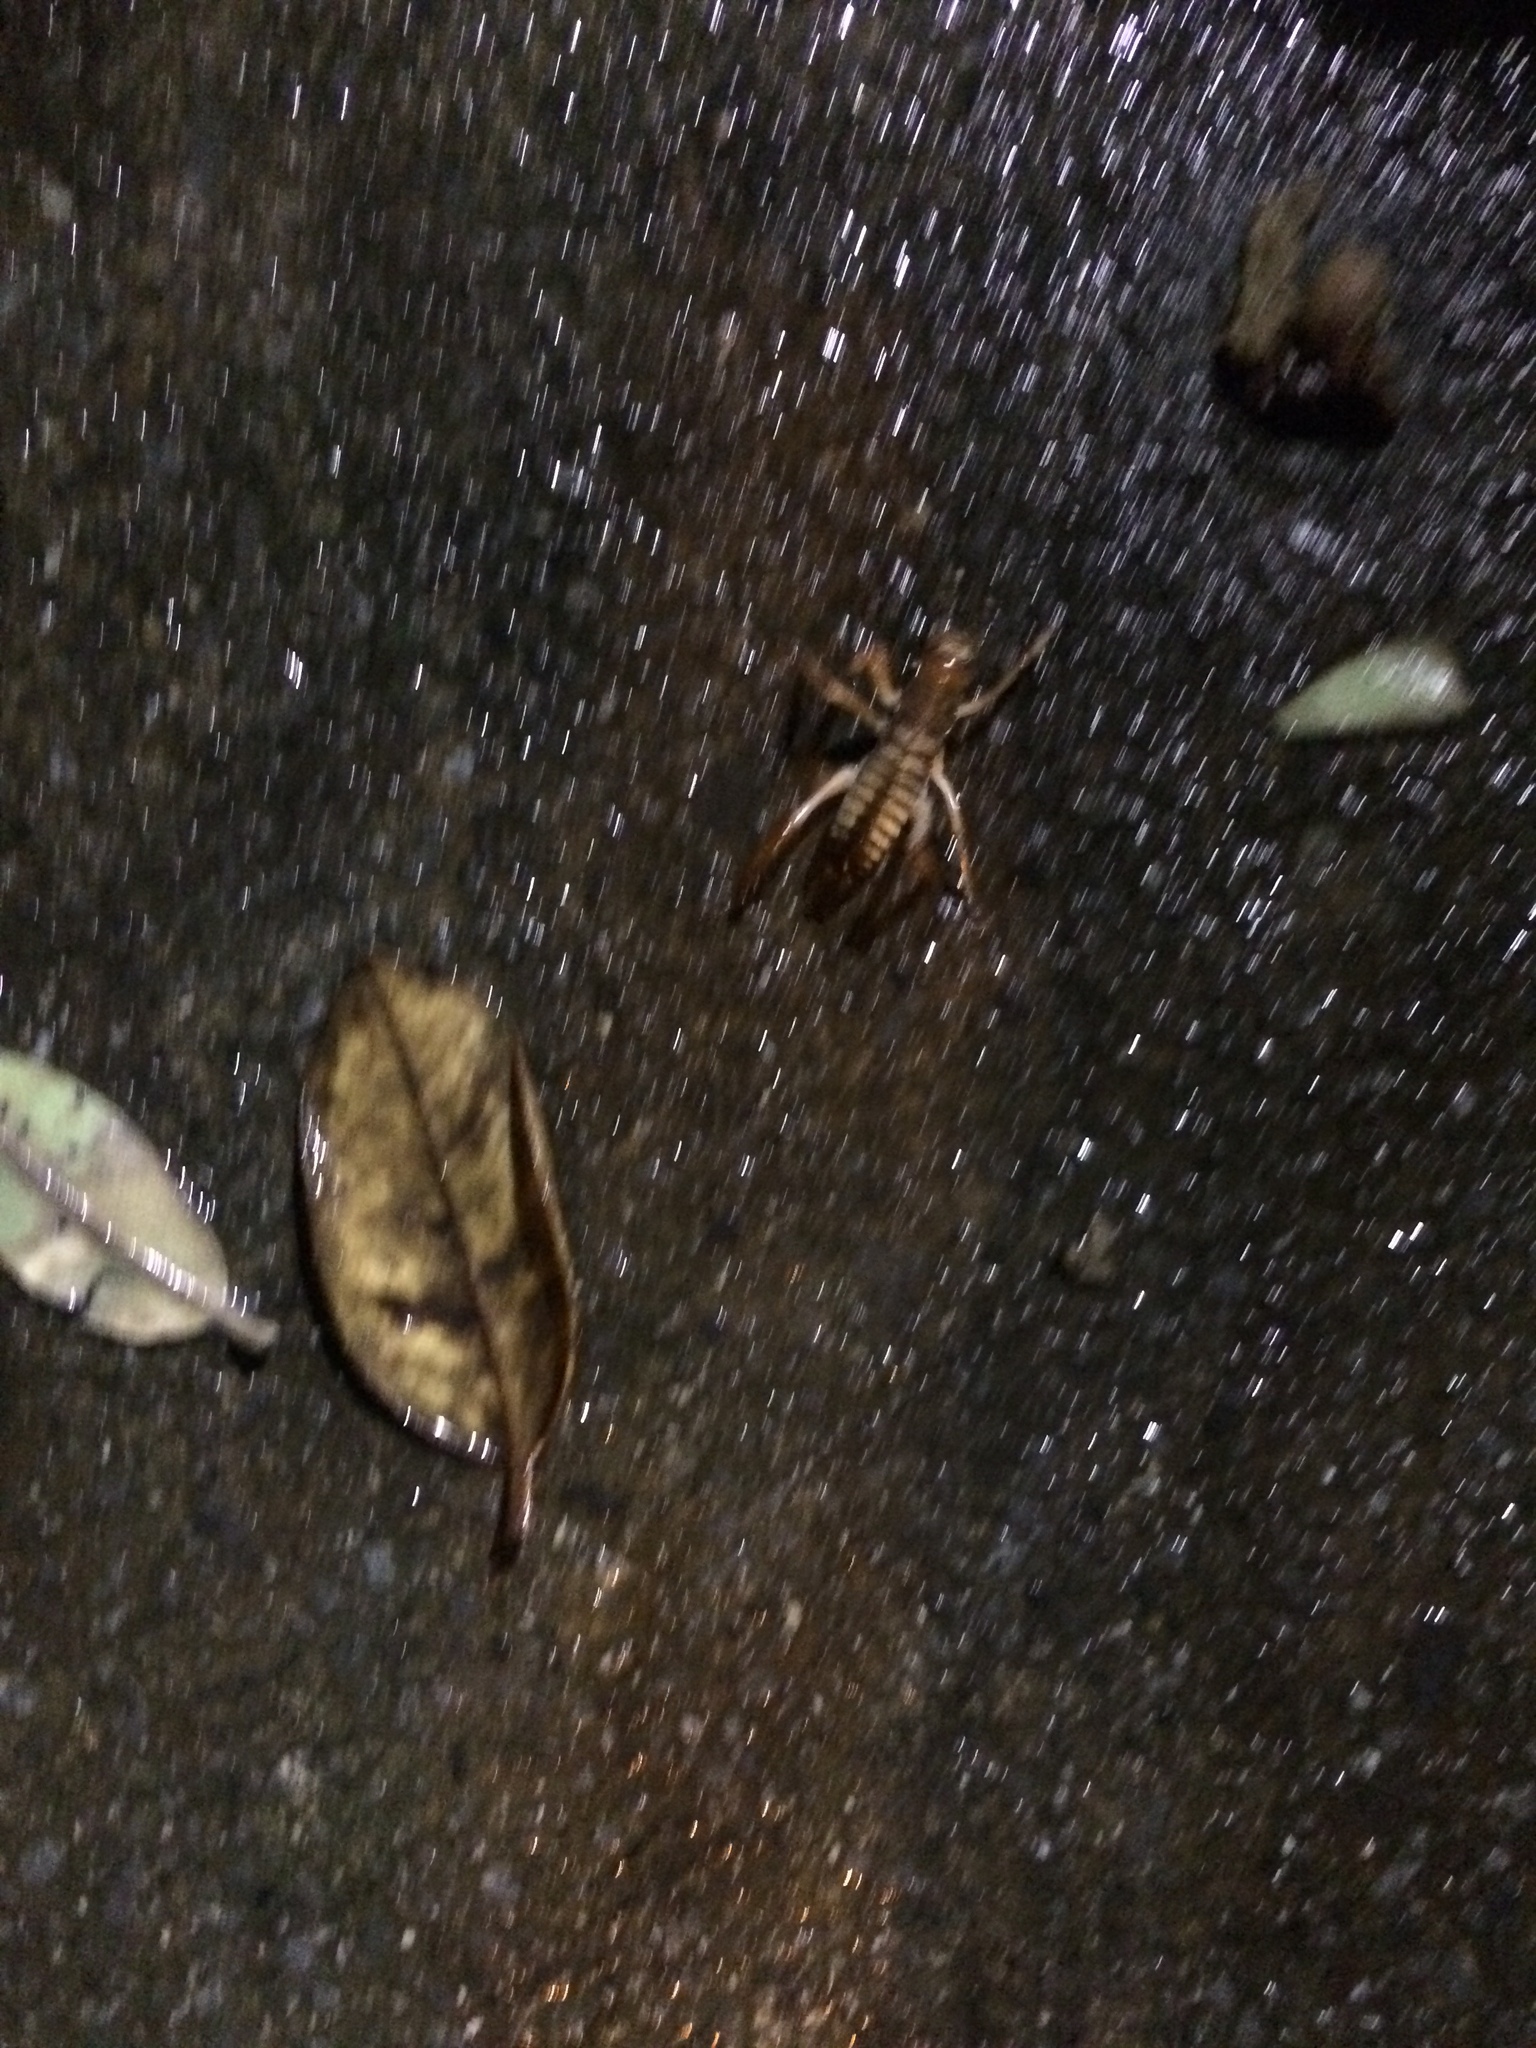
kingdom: Animalia
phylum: Arthropoda
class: Insecta
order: Orthoptera
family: Anostostomatidae
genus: Hemideina
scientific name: Hemideina crassidens
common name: Wellington tree weta
